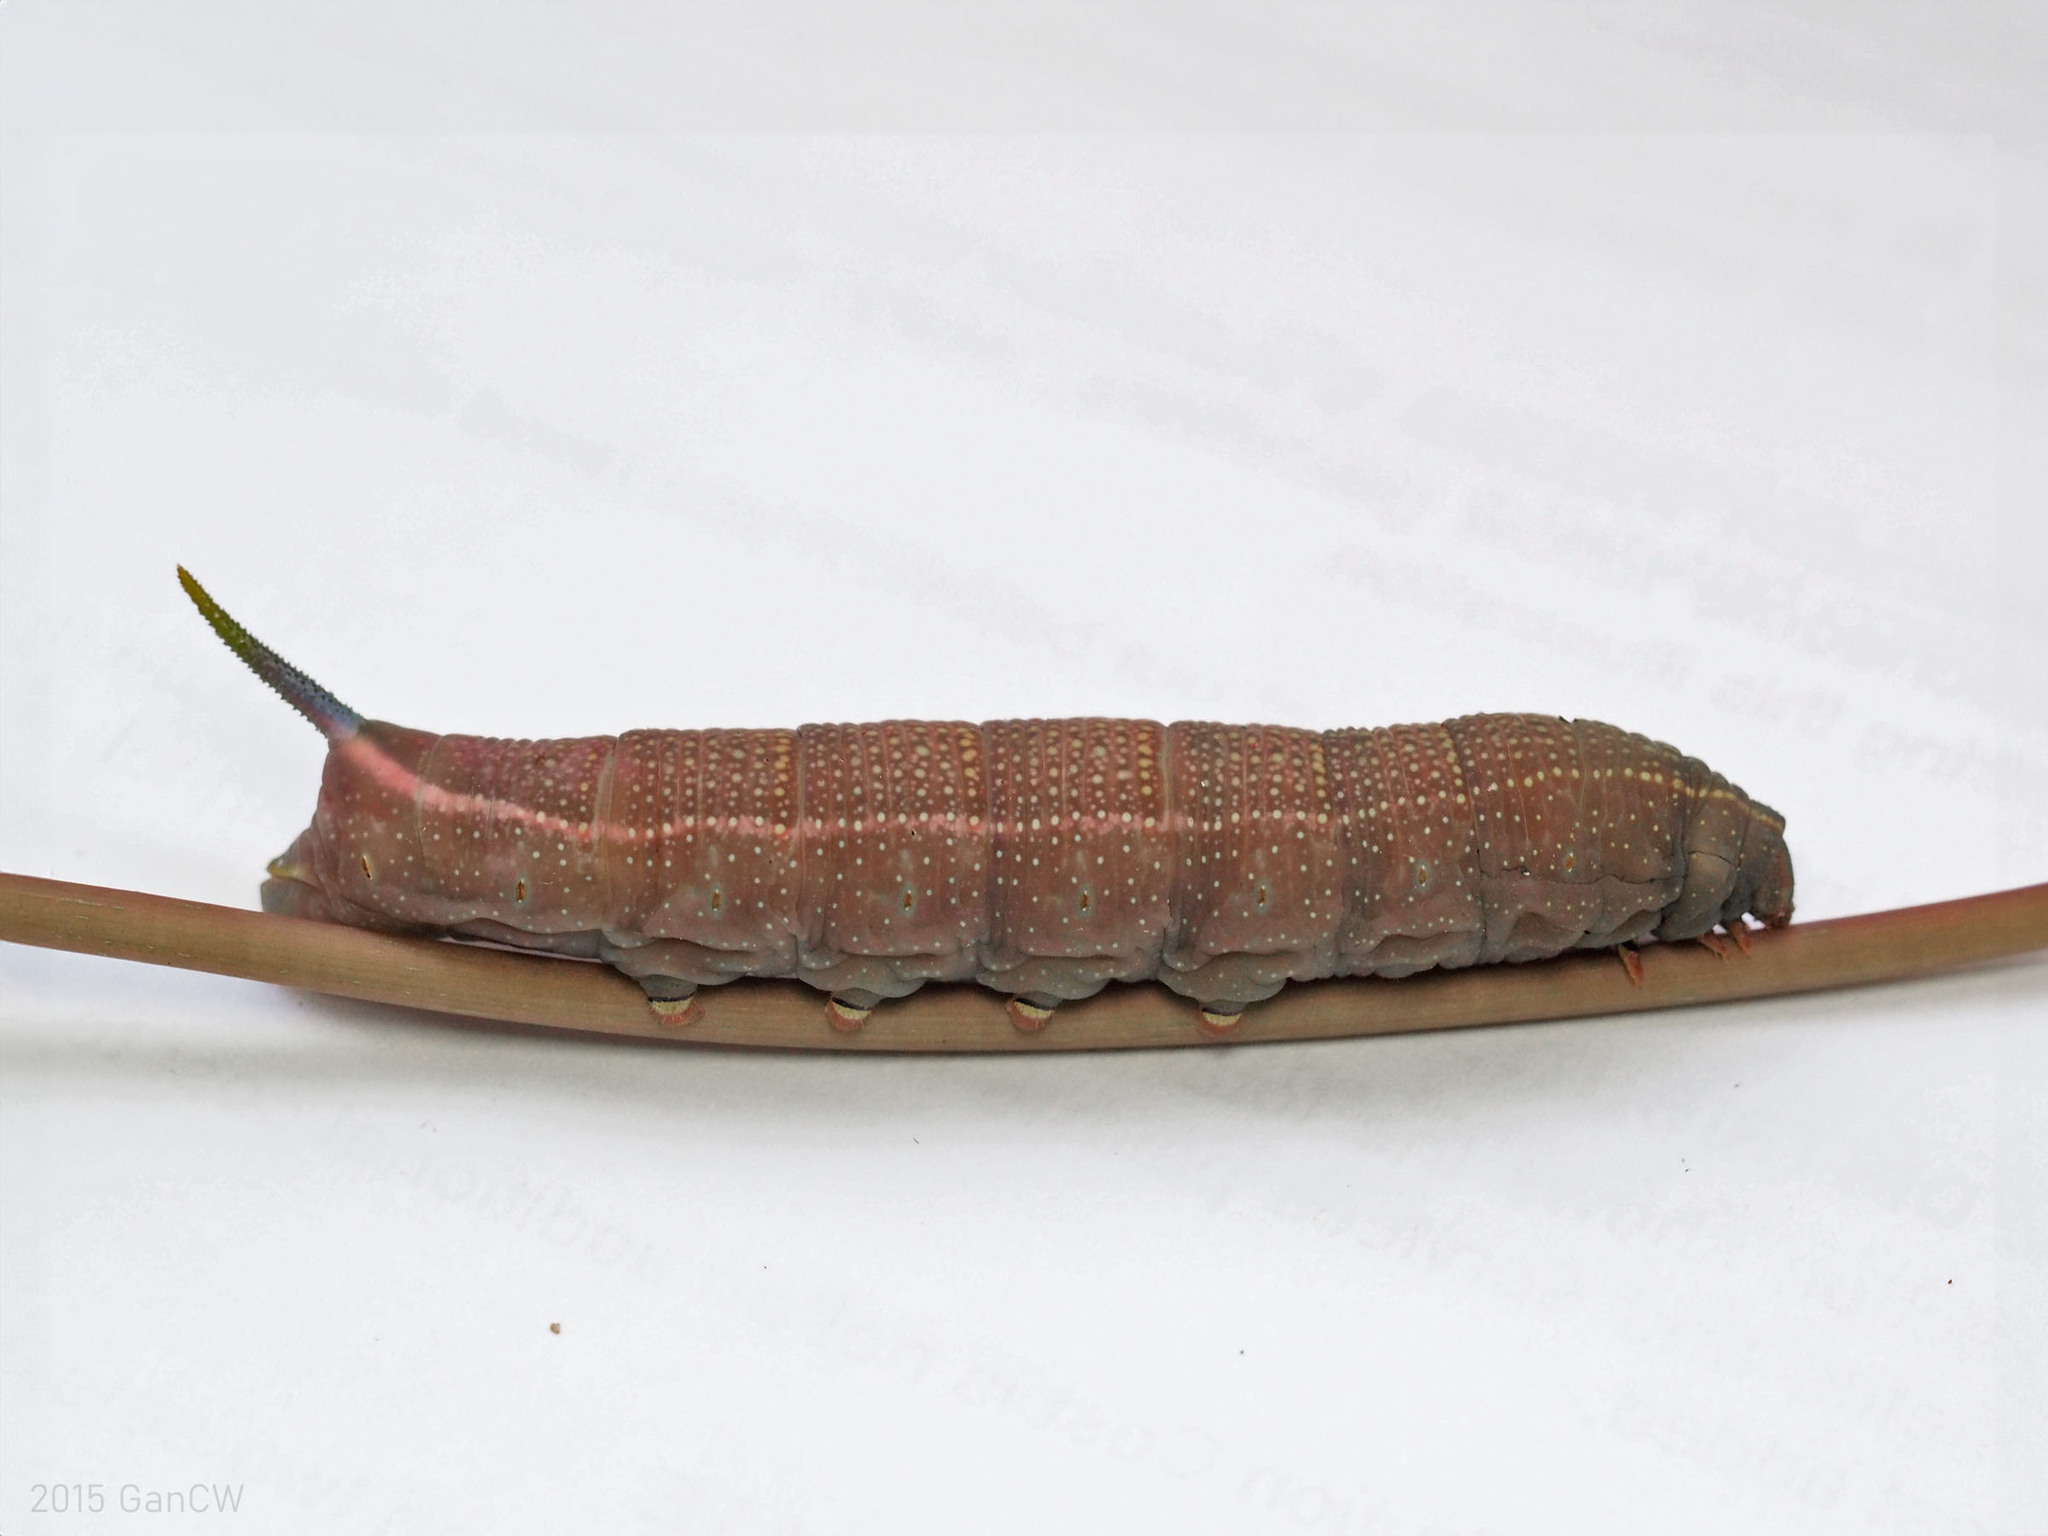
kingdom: Animalia
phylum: Arthropoda
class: Insecta
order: Lepidoptera
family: Sphingidae
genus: Macroglossum
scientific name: Macroglossum sitiene
